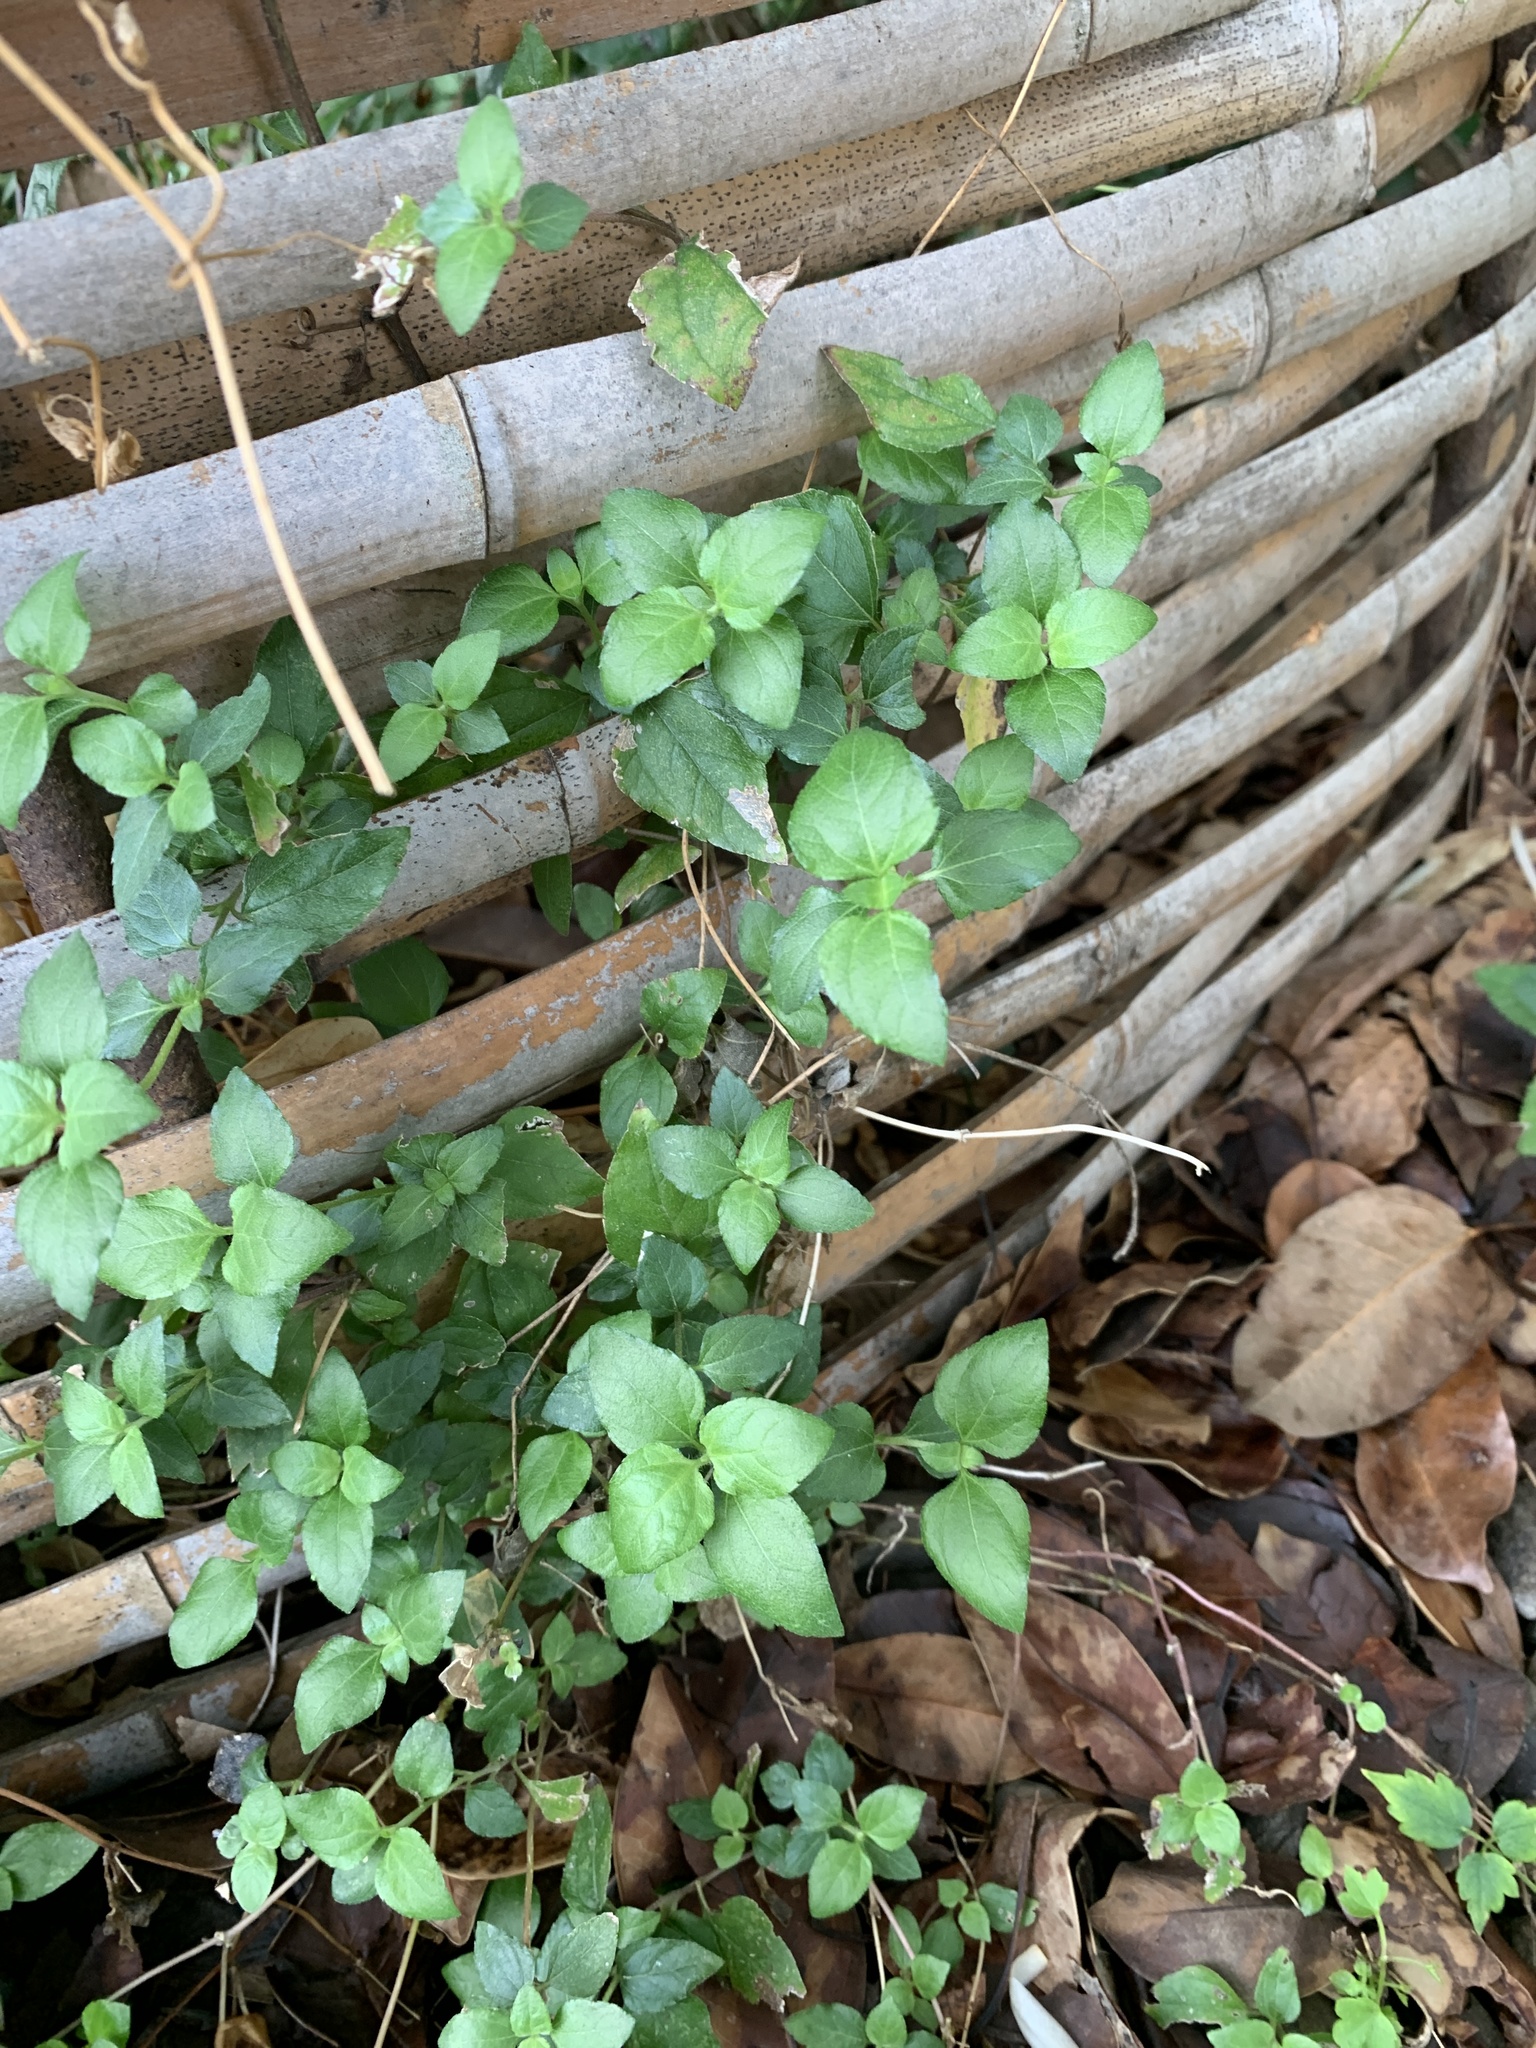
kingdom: Plantae
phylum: Tracheophyta
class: Magnoliopsida
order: Asterales
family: Asteraceae
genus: Calyptocarpus
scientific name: Calyptocarpus vialis
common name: Straggler daisy
